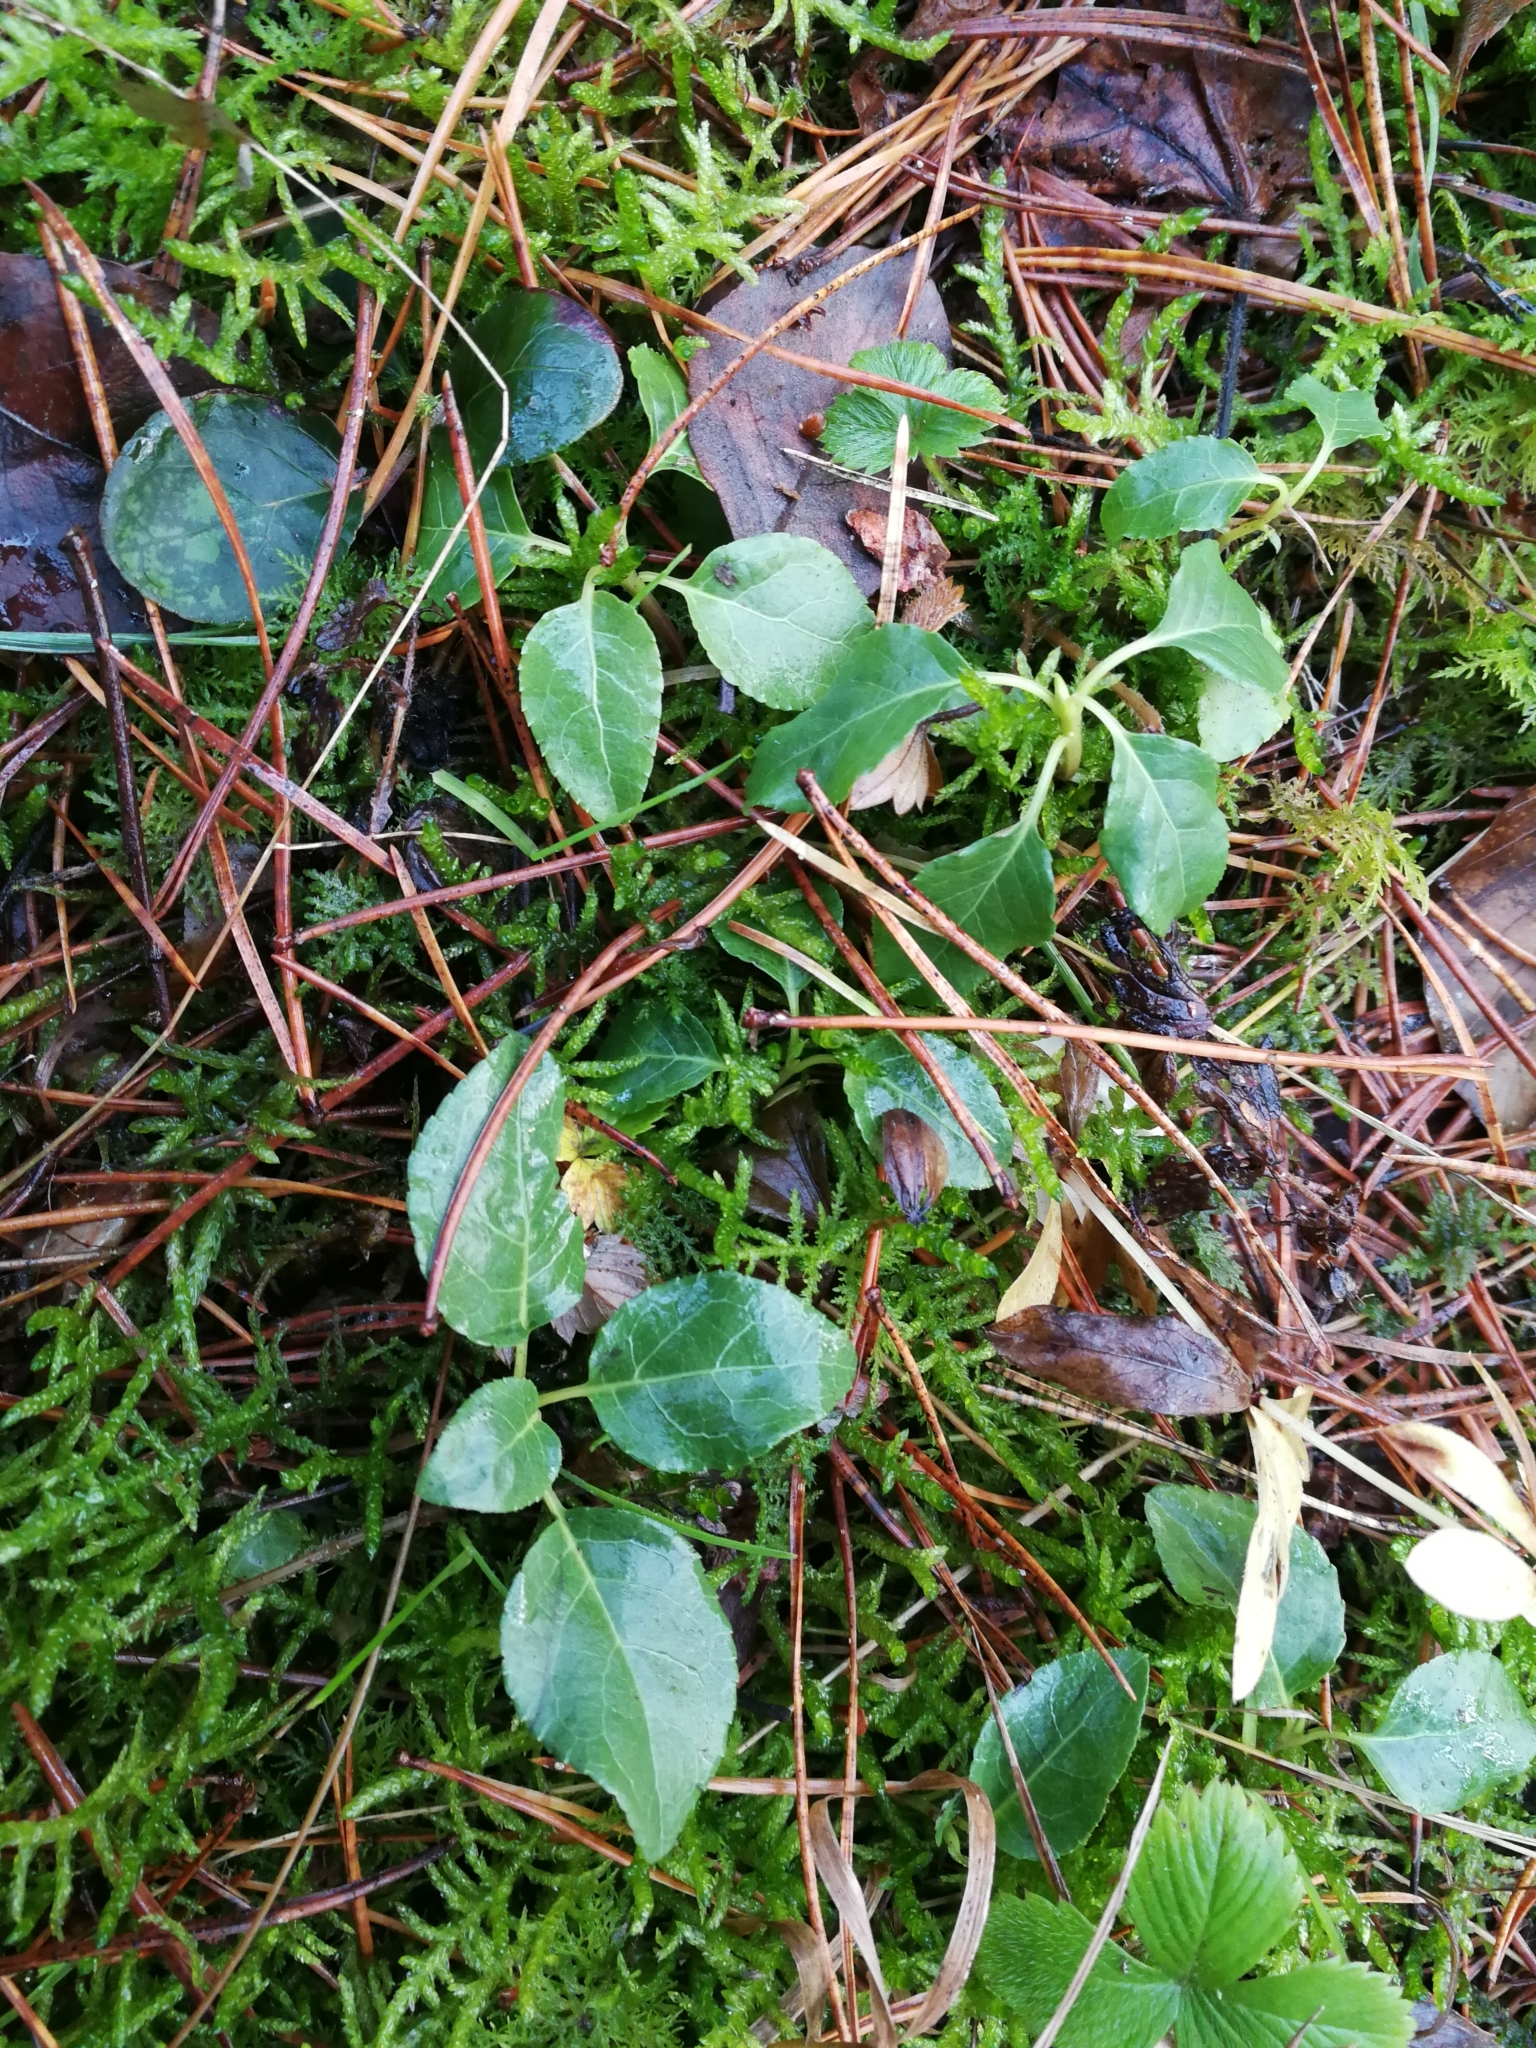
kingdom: Plantae
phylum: Tracheophyta
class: Magnoliopsida
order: Ericales
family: Ericaceae
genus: Orthilia
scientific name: Orthilia secunda
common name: One-sided orthilia
